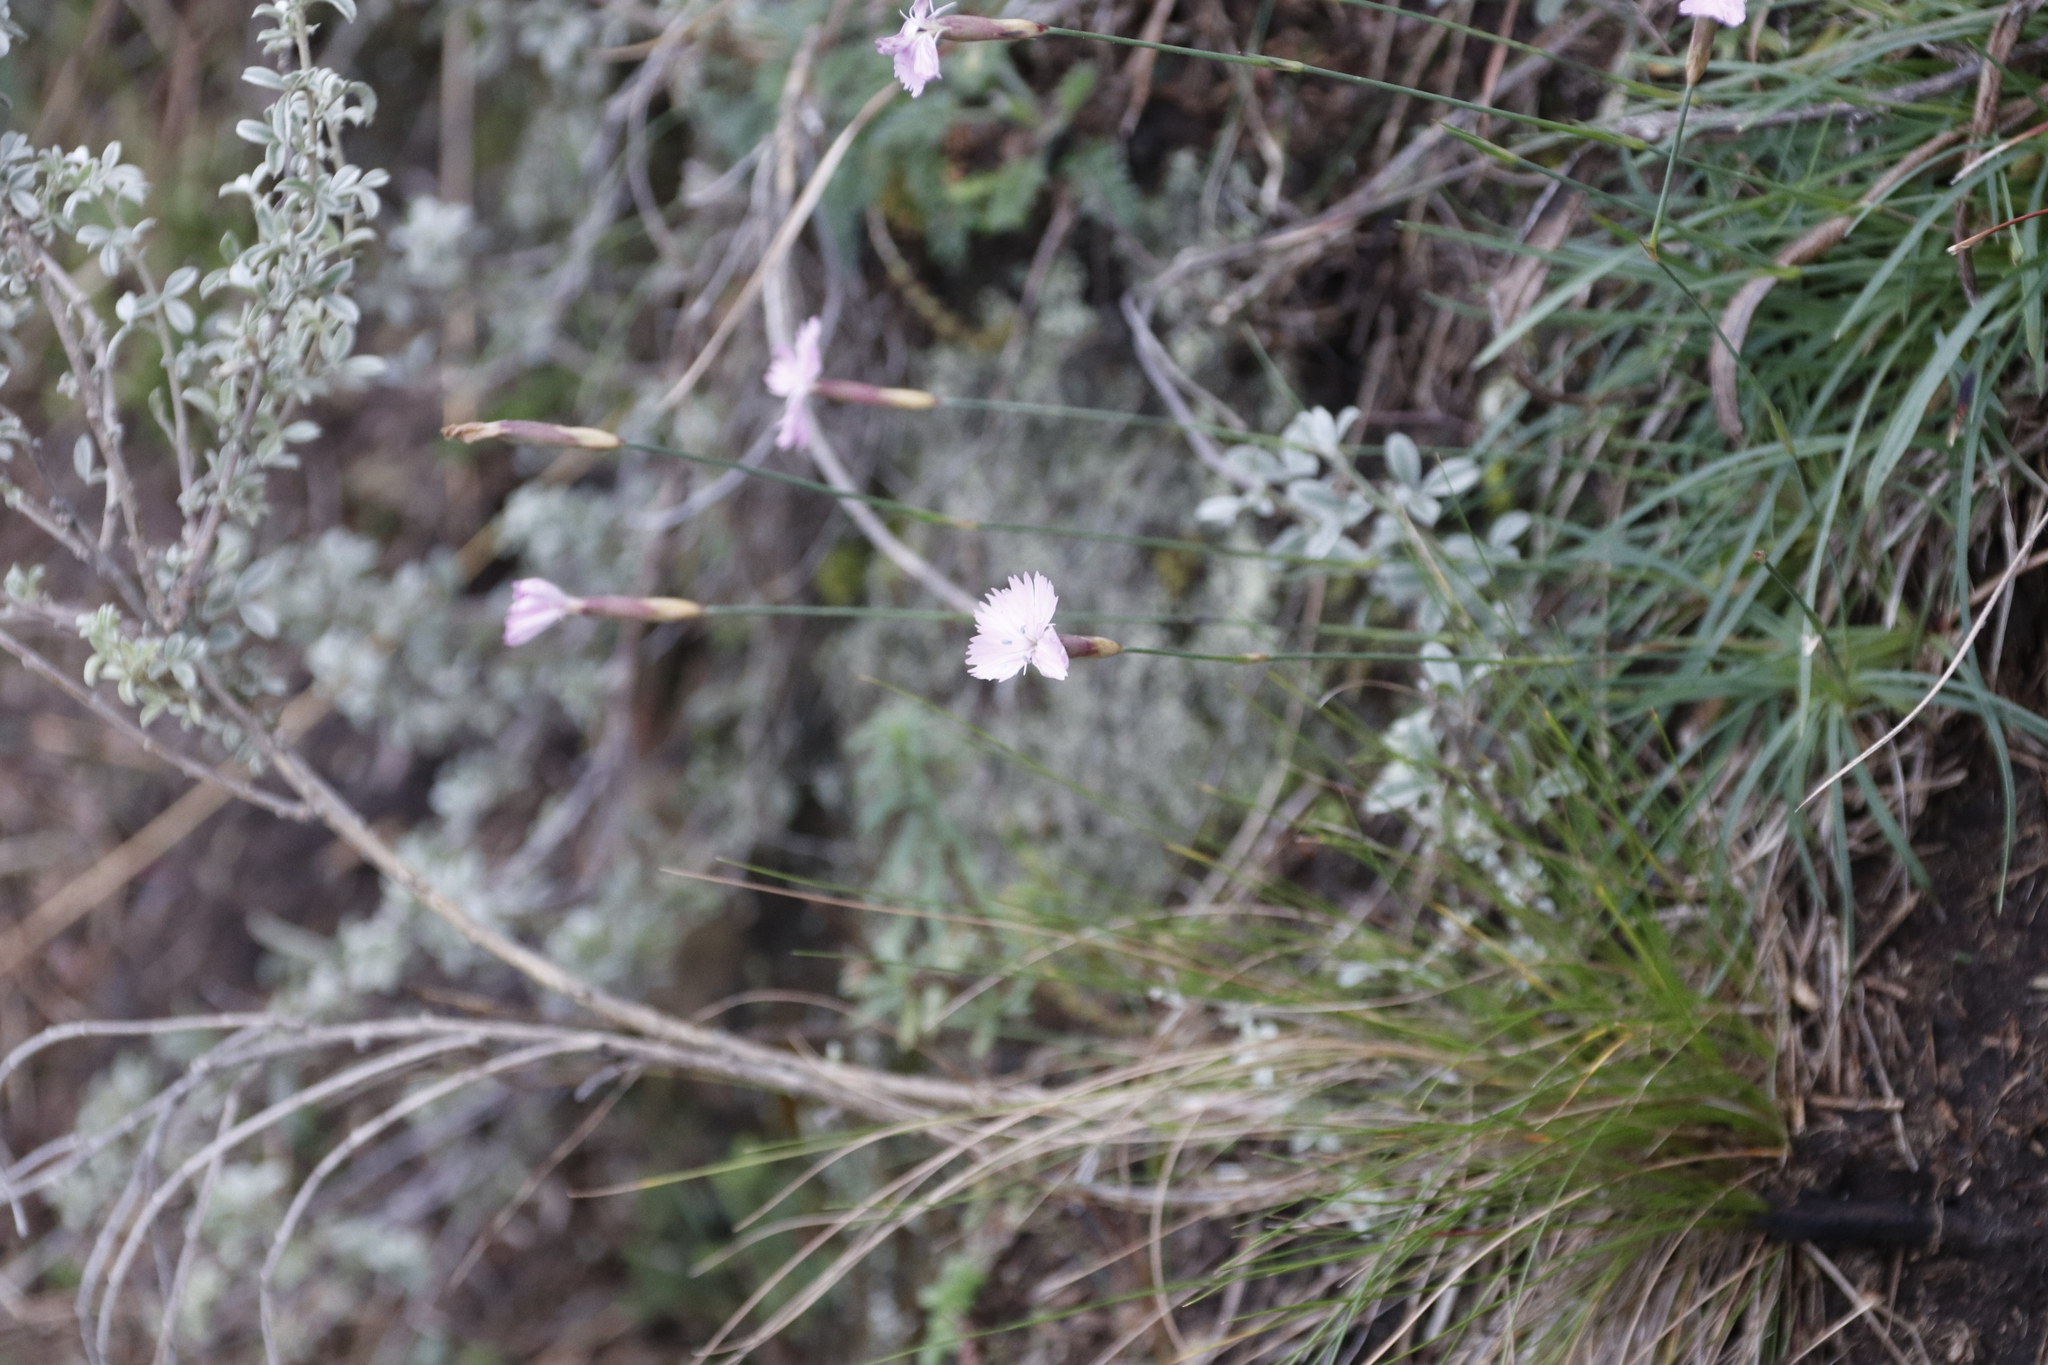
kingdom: Plantae
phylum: Tracheophyta
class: Magnoliopsida
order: Caryophyllales
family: Caryophyllaceae
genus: Dianthus
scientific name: Dianthus basuticus
